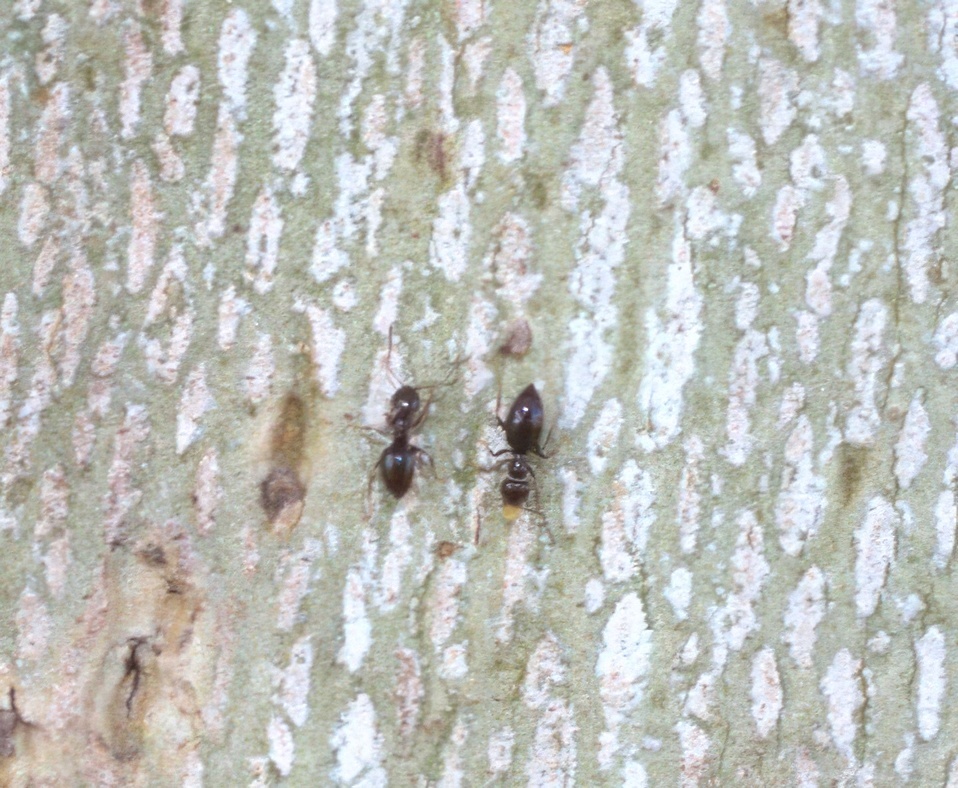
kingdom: Animalia
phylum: Arthropoda
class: Insecta
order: Hymenoptera
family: Formicidae
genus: Brachymyrmex
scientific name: Brachymyrmex patagonicus
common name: Dark rover ant
